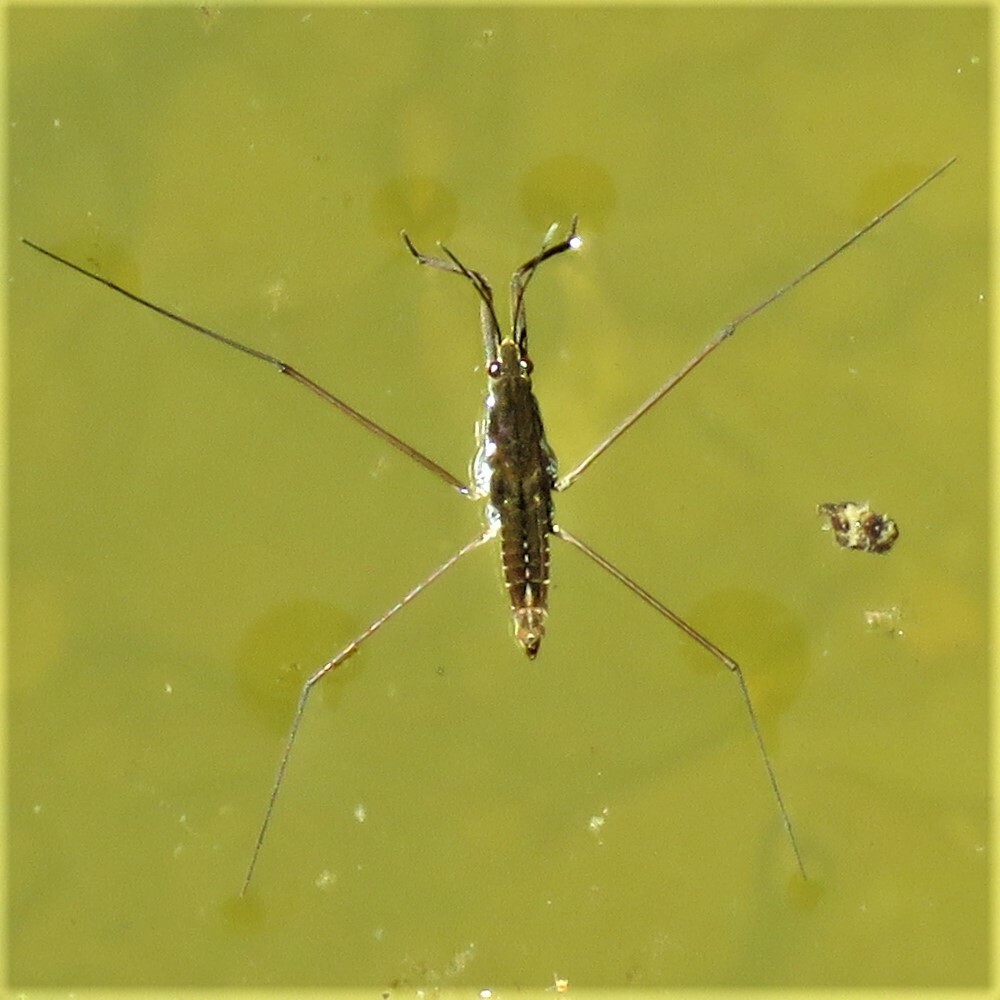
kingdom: Animalia
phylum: Arthropoda
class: Insecta
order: Hemiptera
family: Gerridae
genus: Aquarius
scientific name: Aquarius remigis
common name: Common water strider
